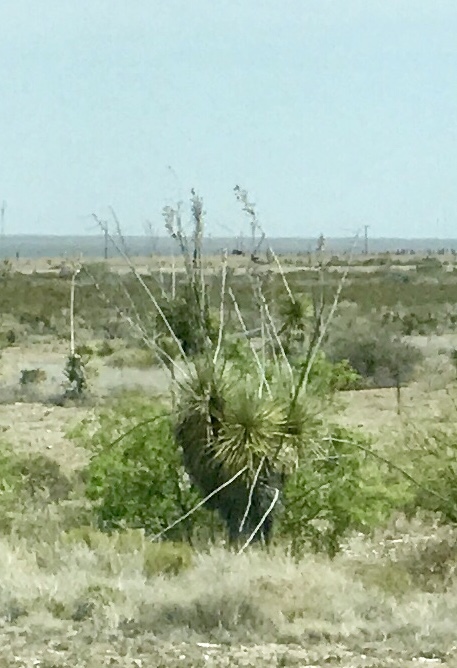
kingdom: Plantae
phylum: Tracheophyta
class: Liliopsida
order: Asparagales
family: Asparagaceae
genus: Yucca
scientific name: Yucca elata
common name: Palmella
